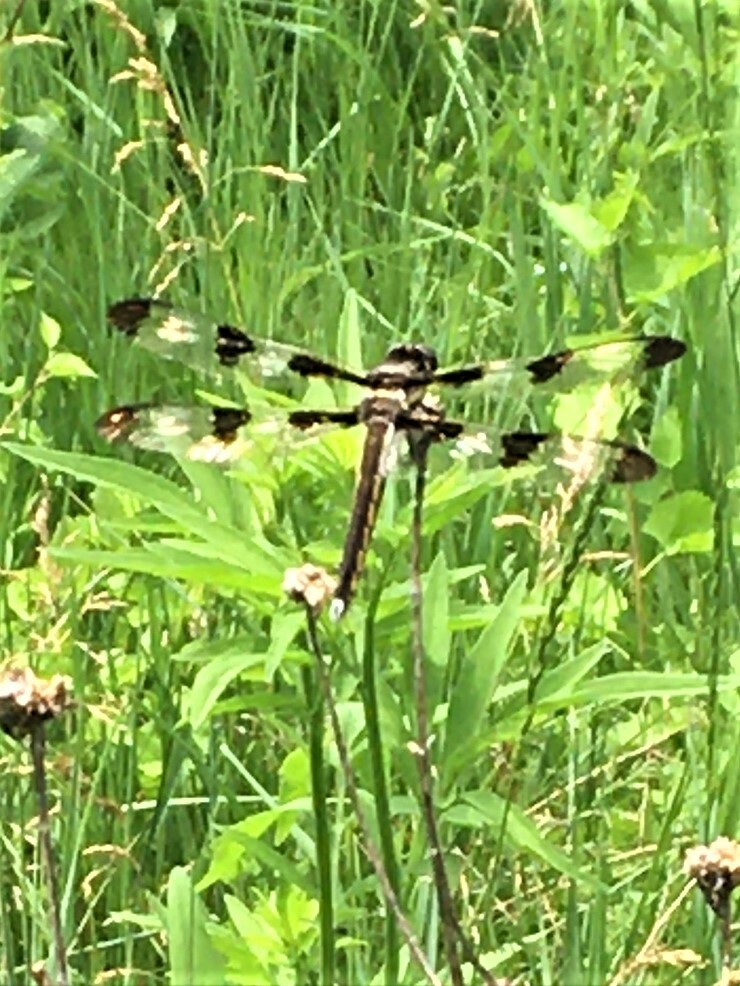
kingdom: Animalia
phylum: Arthropoda
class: Insecta
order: Odonata
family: Libellulidae
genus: Libellula
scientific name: Libellula pulchella
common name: Twelve-spotted skimmer
